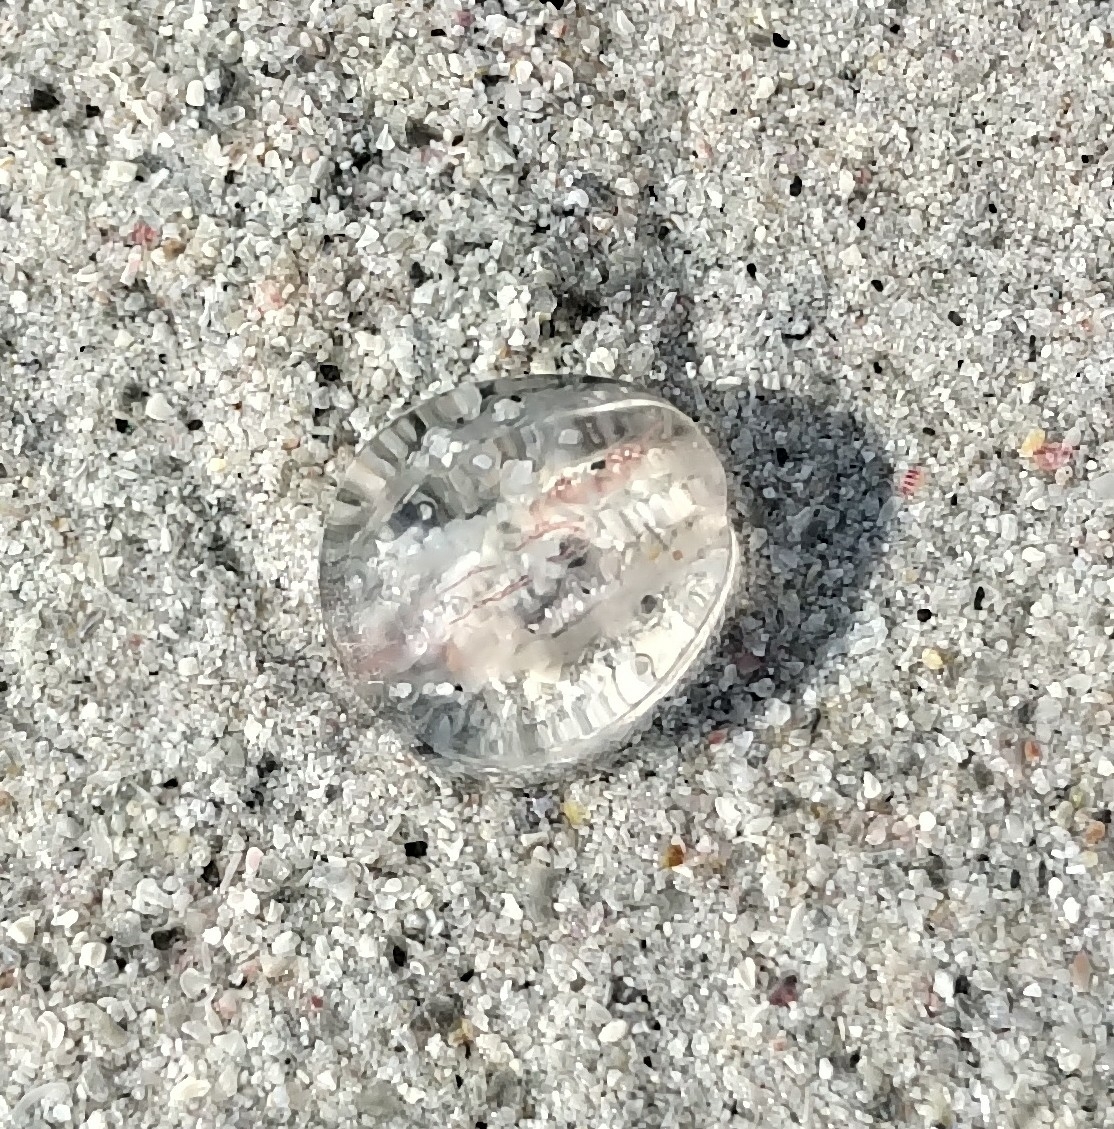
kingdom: Animalia
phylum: Ctenophora
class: Tentaculata
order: Cydippida
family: Pleurobrachiidae
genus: Pleurobrachia
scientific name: Pleurobrachia pileus
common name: Sea gooseberry
